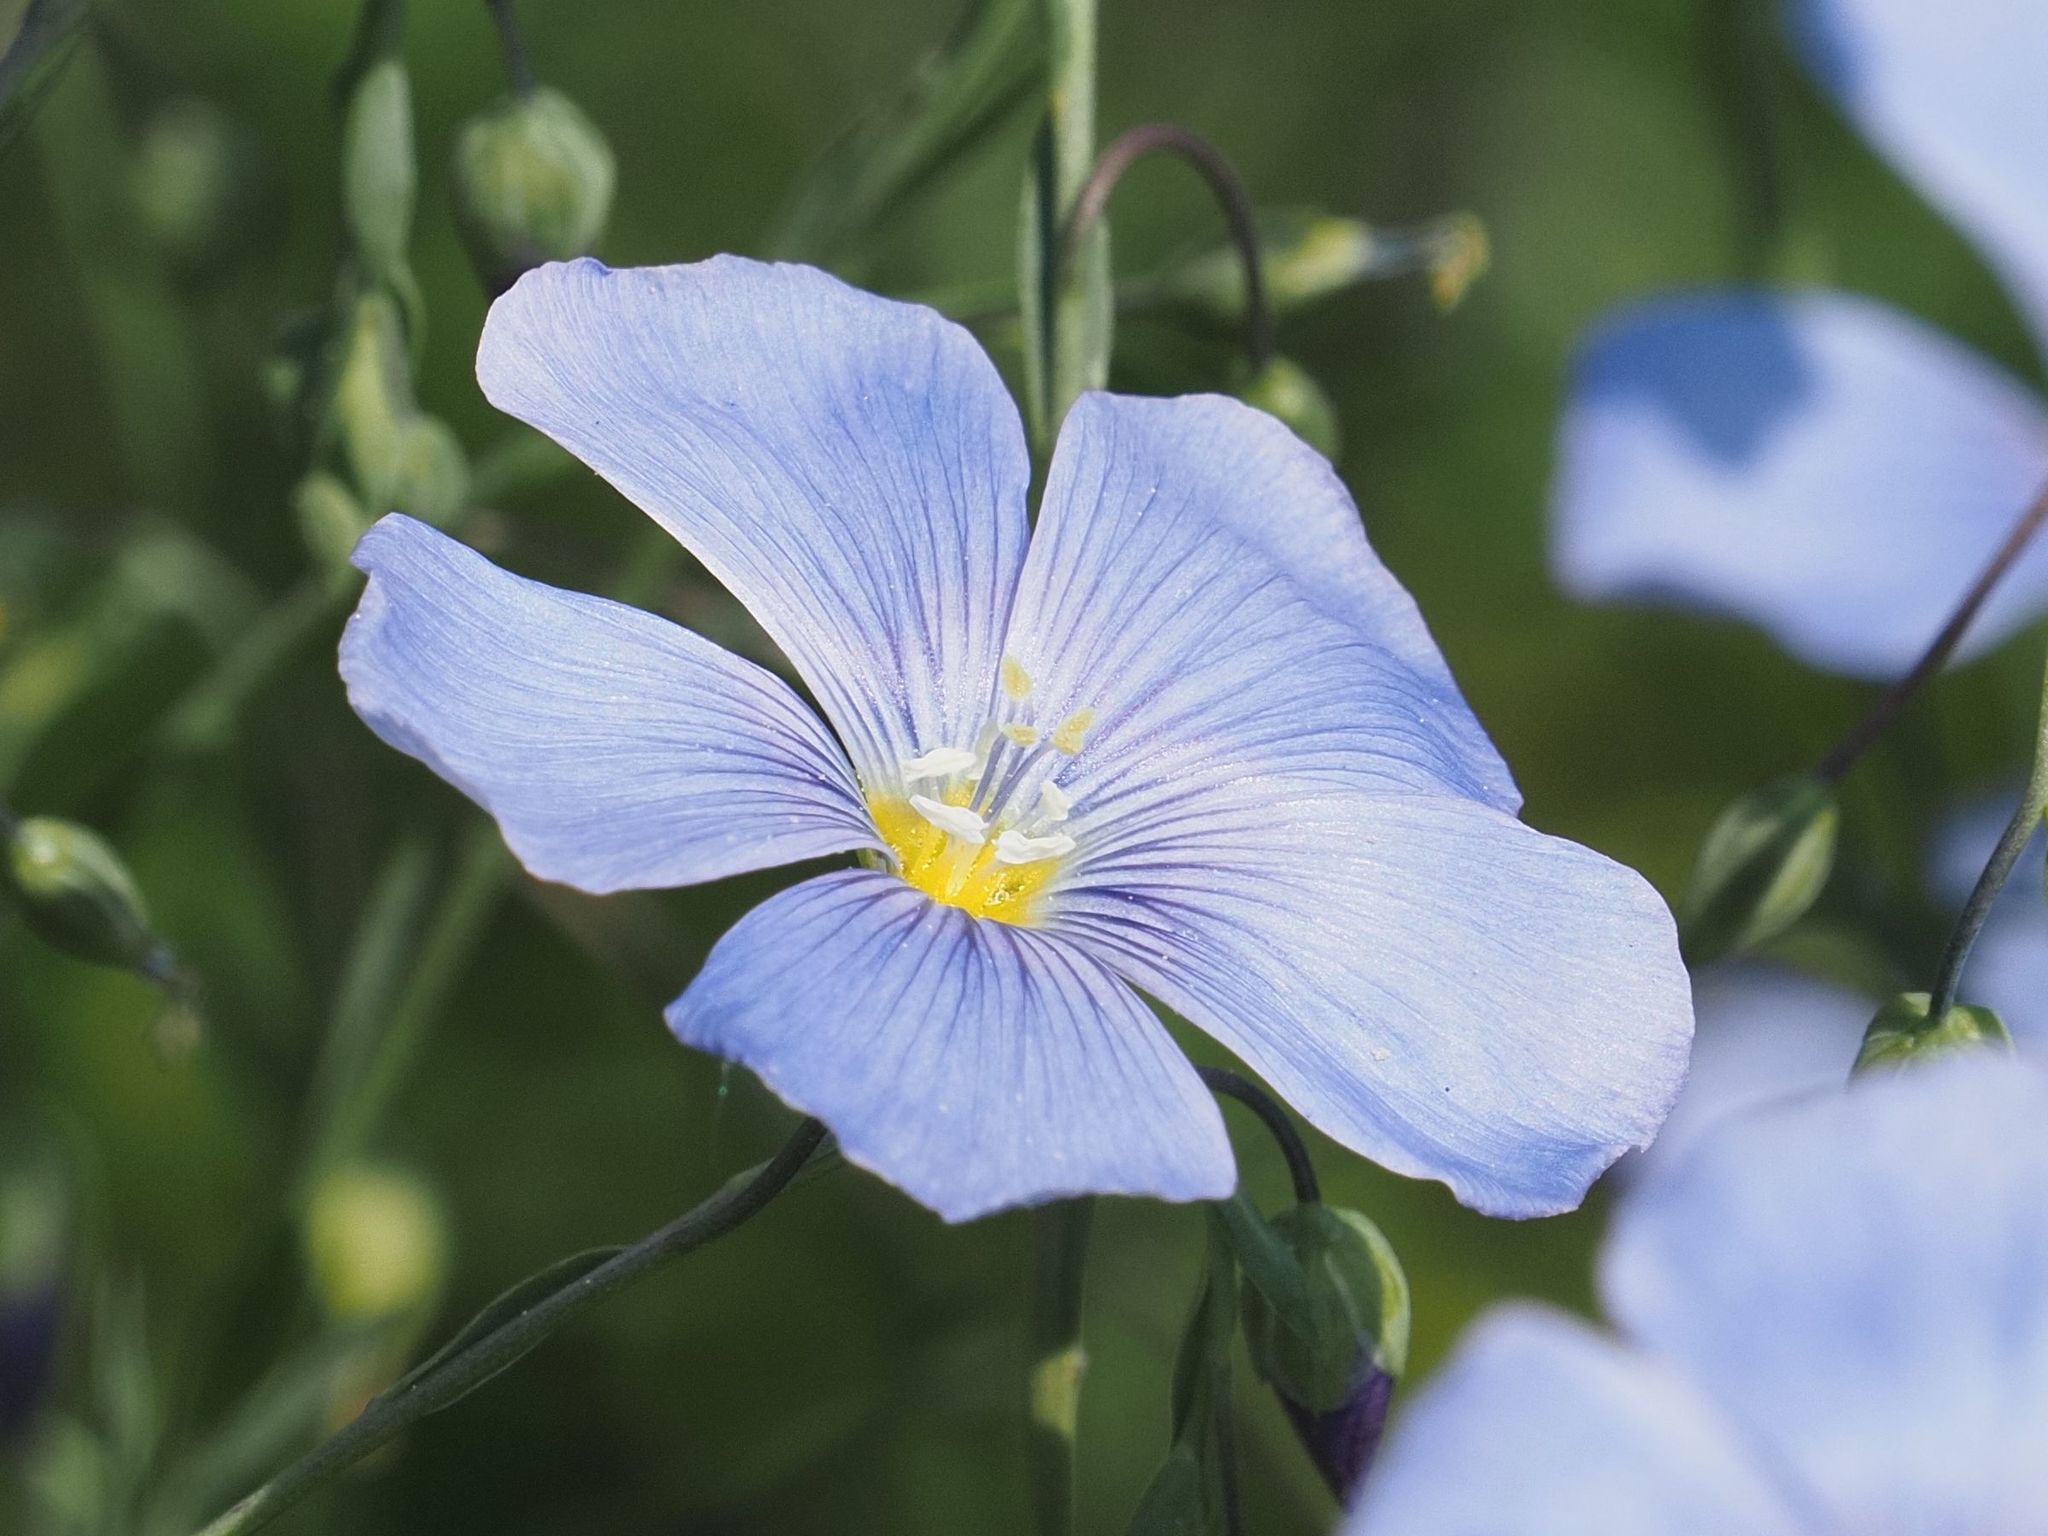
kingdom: Plantae
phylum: Tracheophyta
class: Magnoliopsida
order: Malpighiales
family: Linaceae
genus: Linum
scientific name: Linum austriacum
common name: Austrian flax
